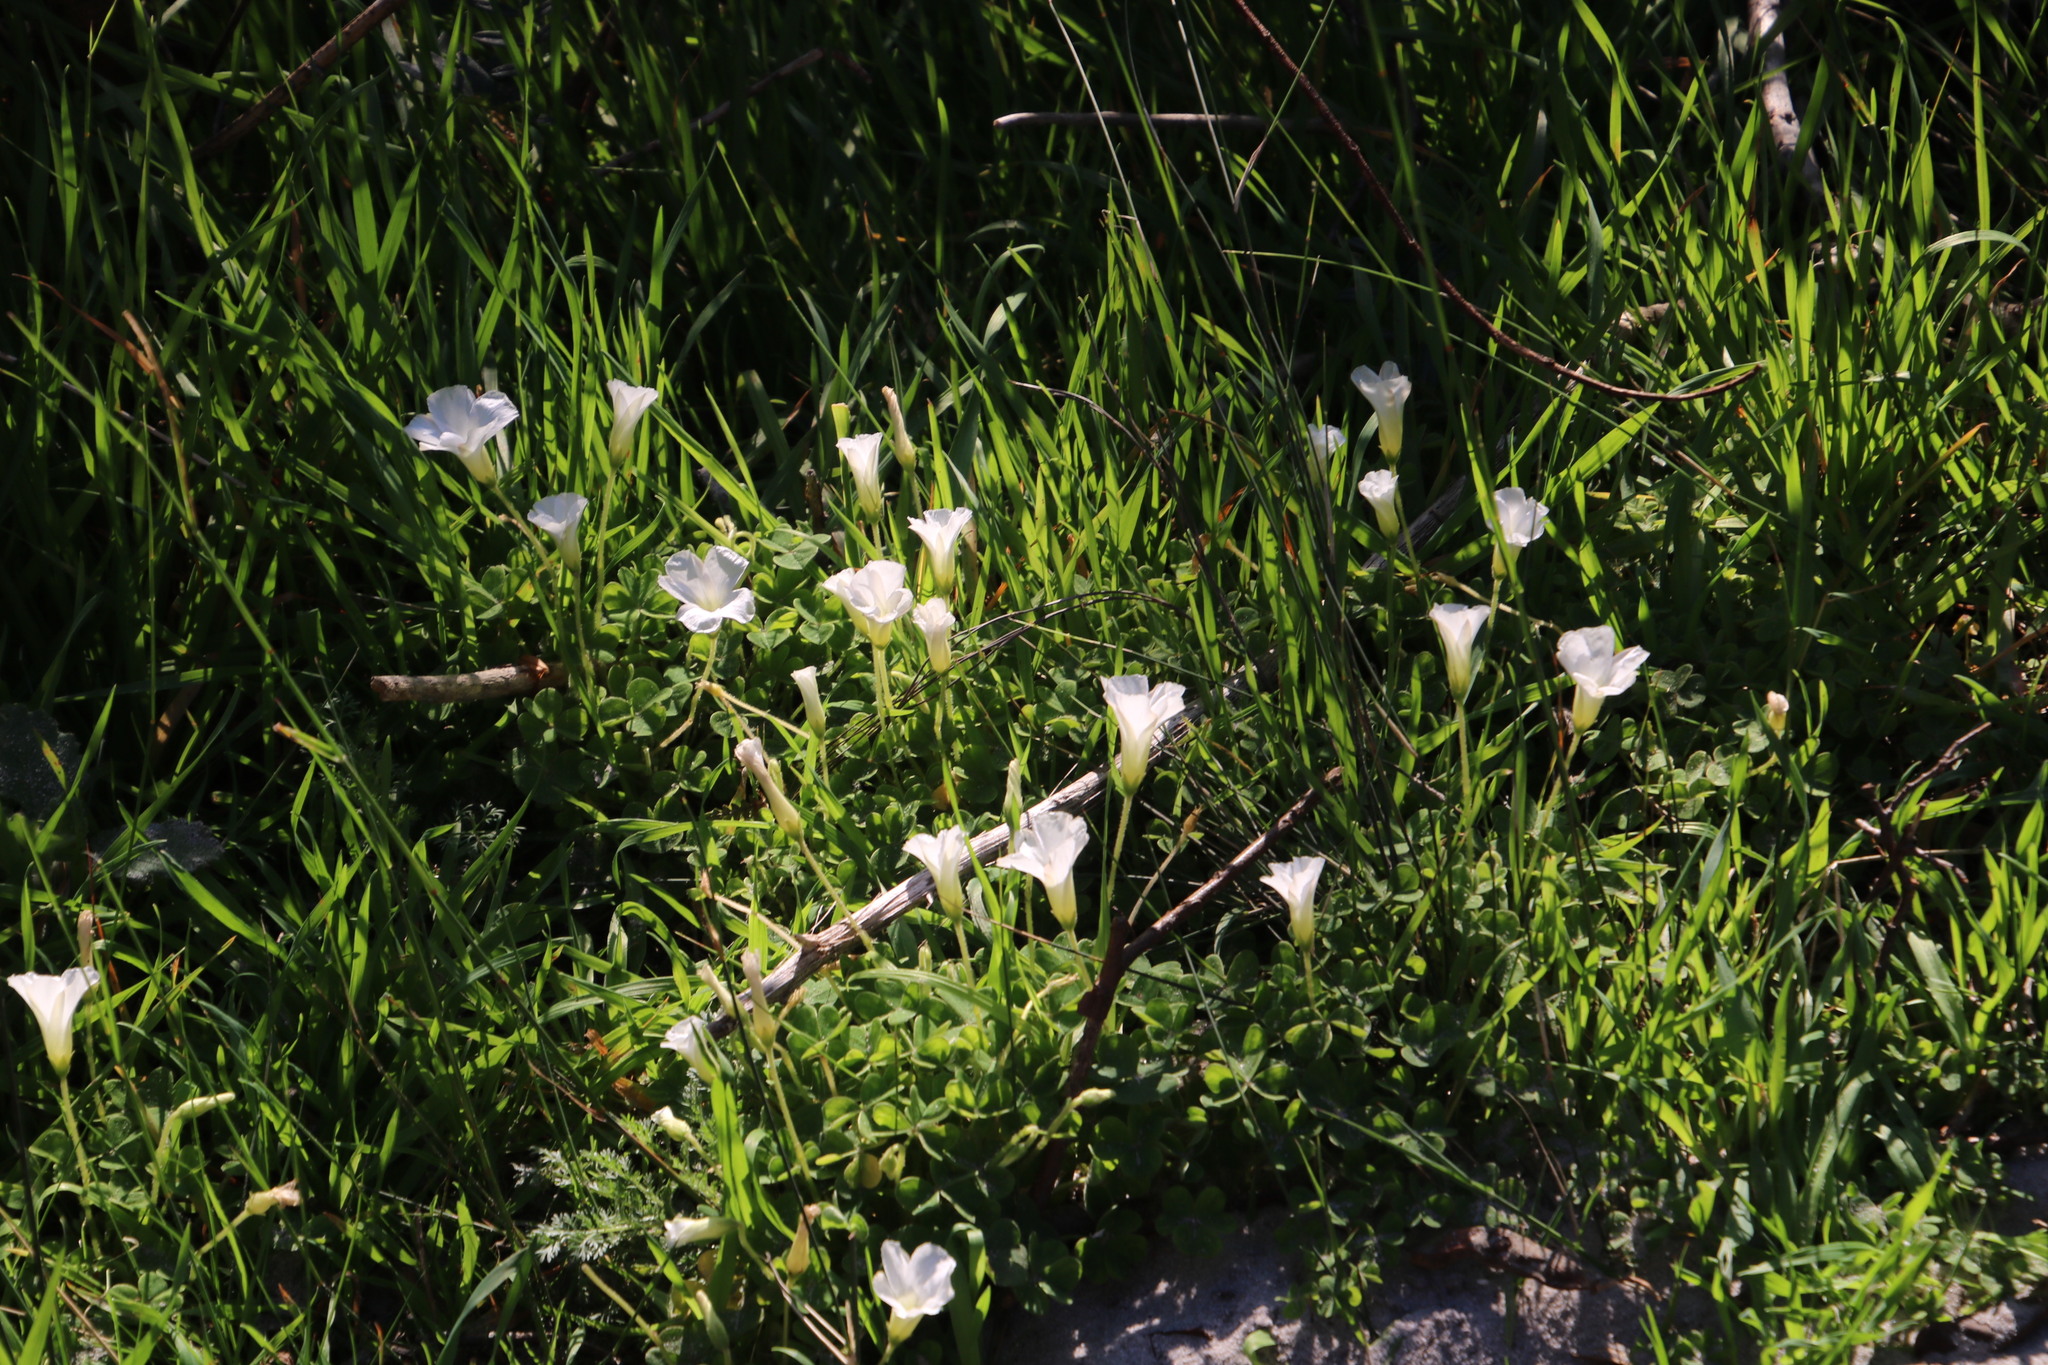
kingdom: Plantae
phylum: Tracheophyta
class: Magnoliopsida
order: Oxalidales
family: Oxalidaceae
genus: Oxalis
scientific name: Oxalis lanata
